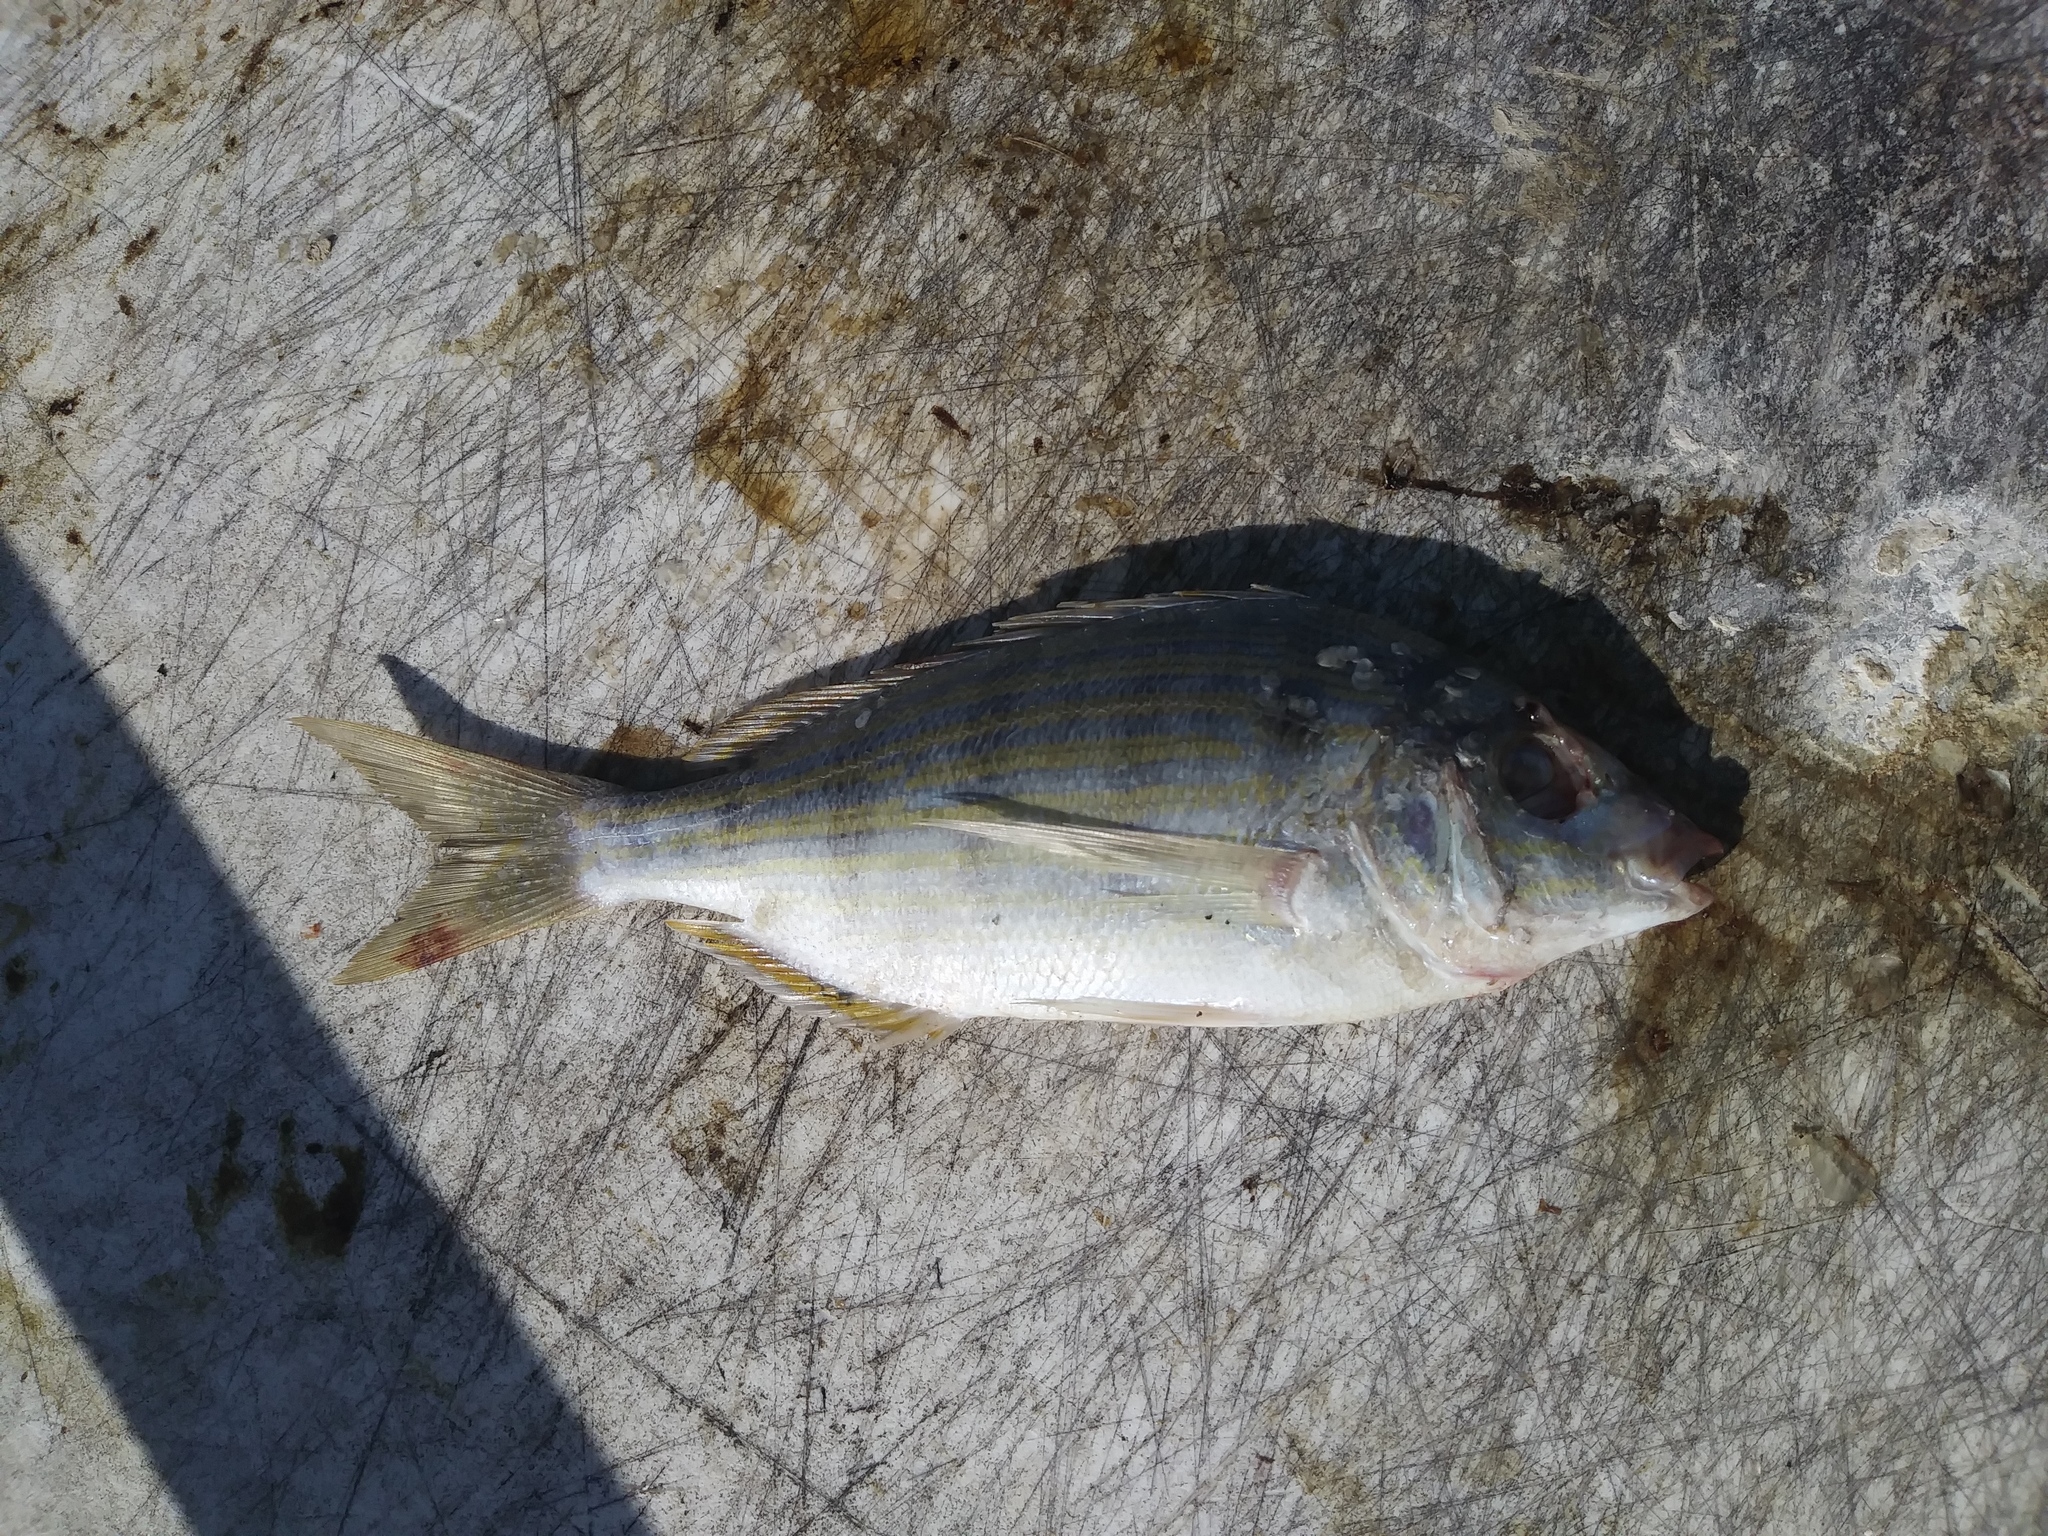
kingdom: Animalia
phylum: Chordata
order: Perciformes
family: Sparidae
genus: Lagodon
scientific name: Lagodon rhomboides
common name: Pinfish
